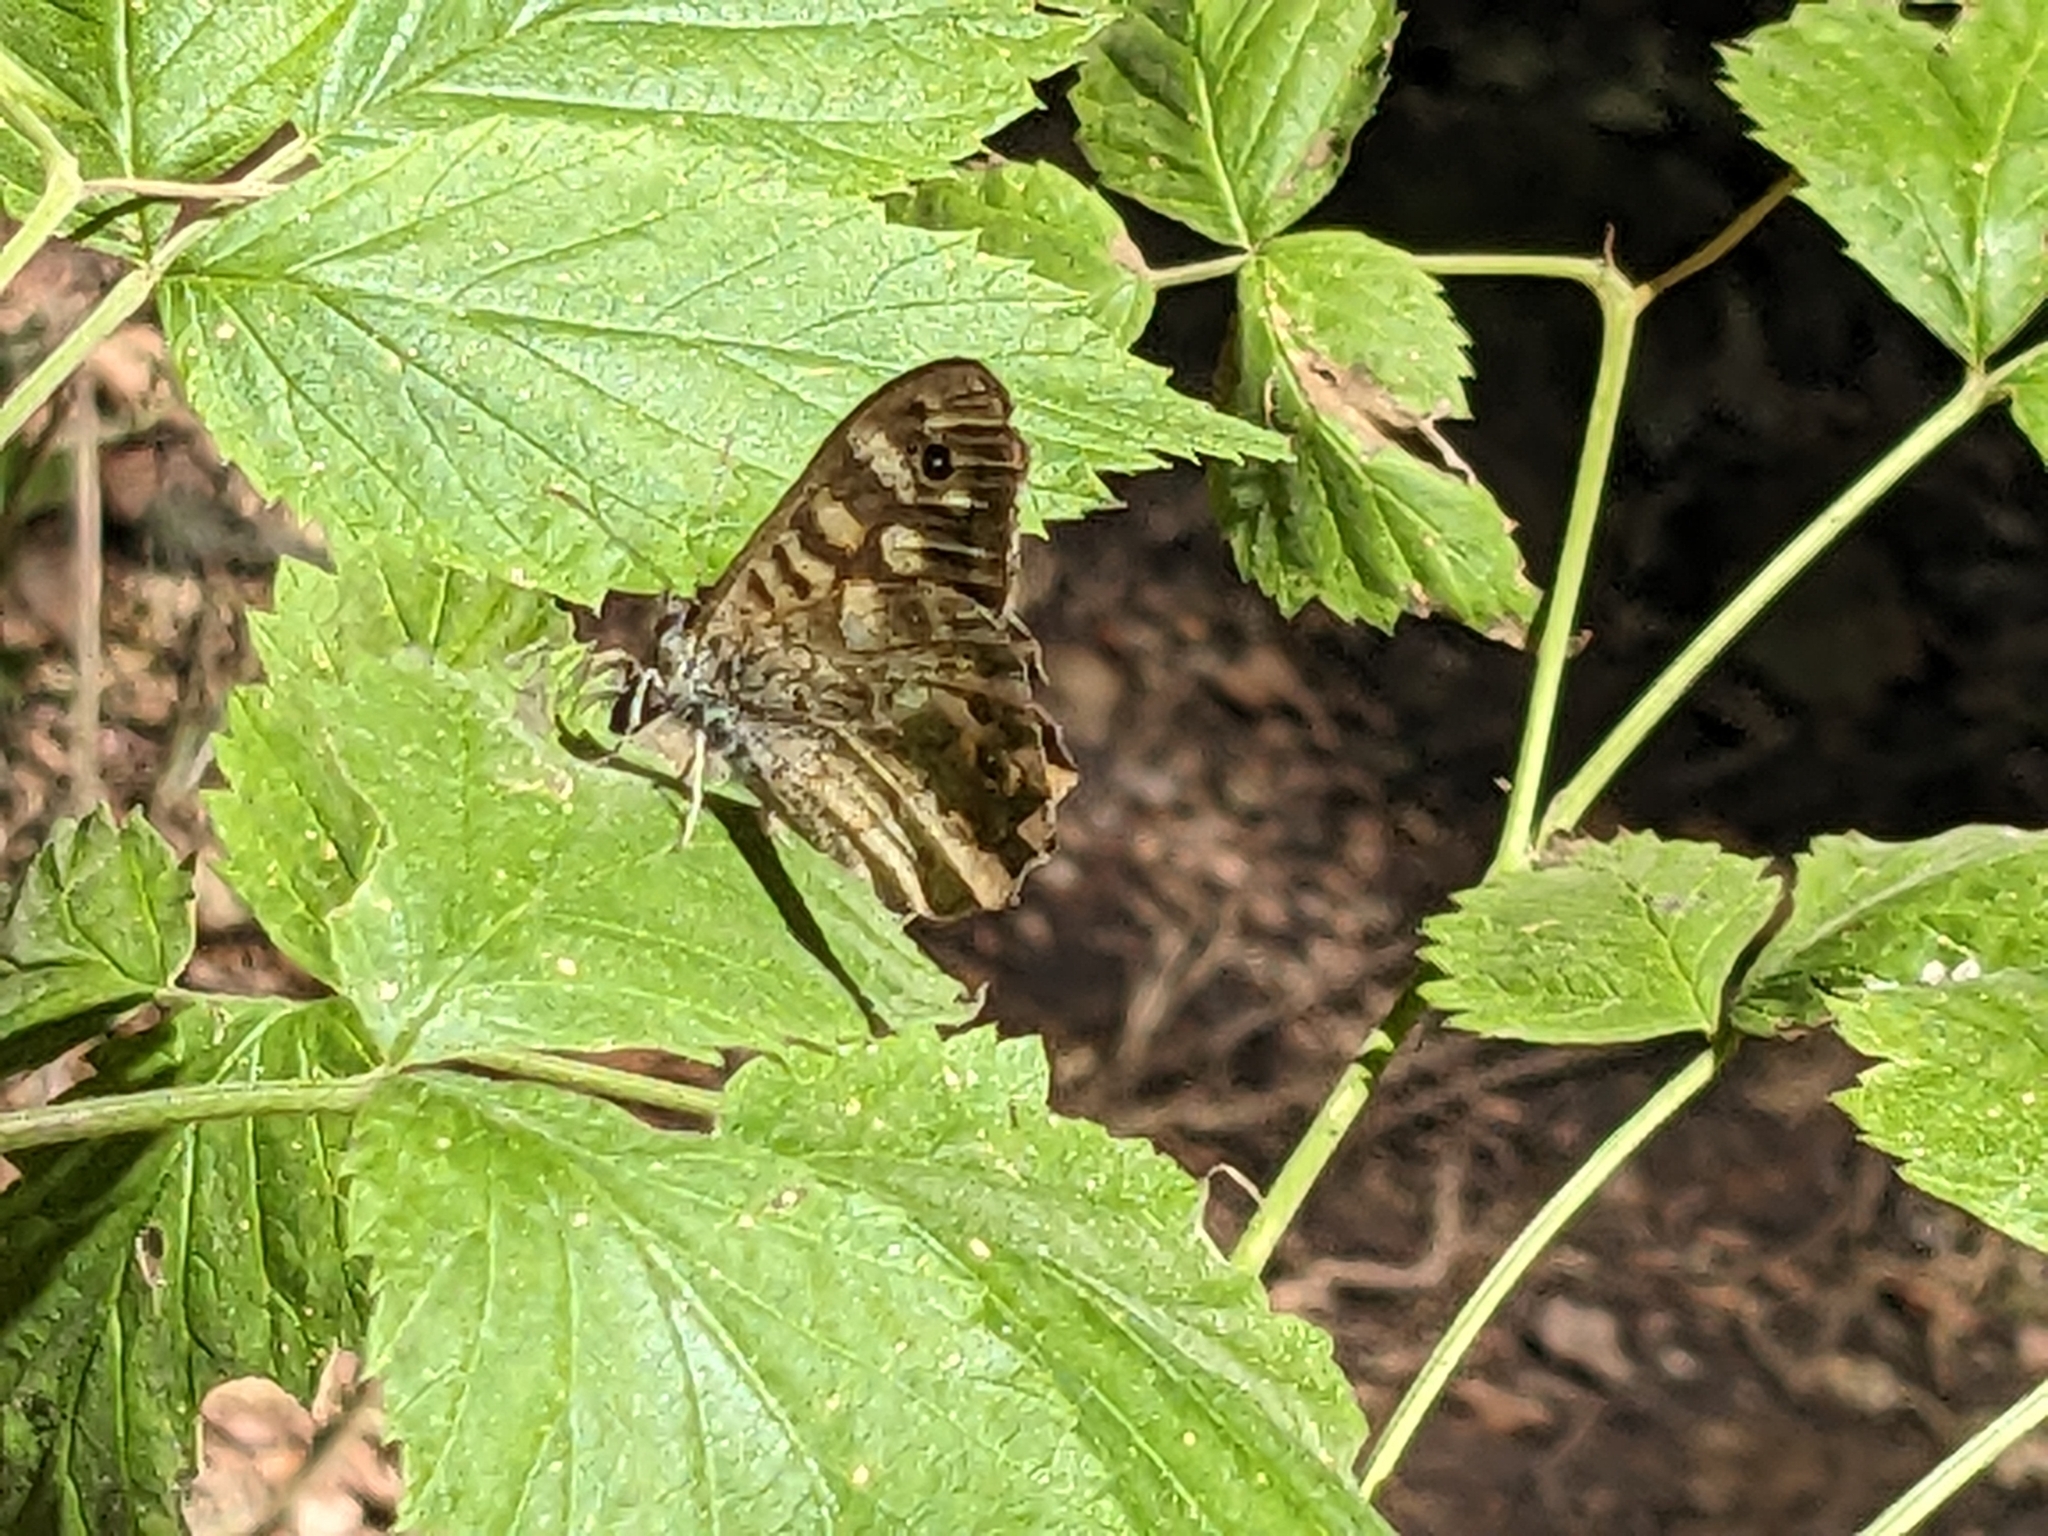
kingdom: Animalia
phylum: Arthropoda
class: Insecta
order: Lepidoptera
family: Nymphalidae
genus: Pararge
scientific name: Pararge aegeria
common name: Speckled wood
